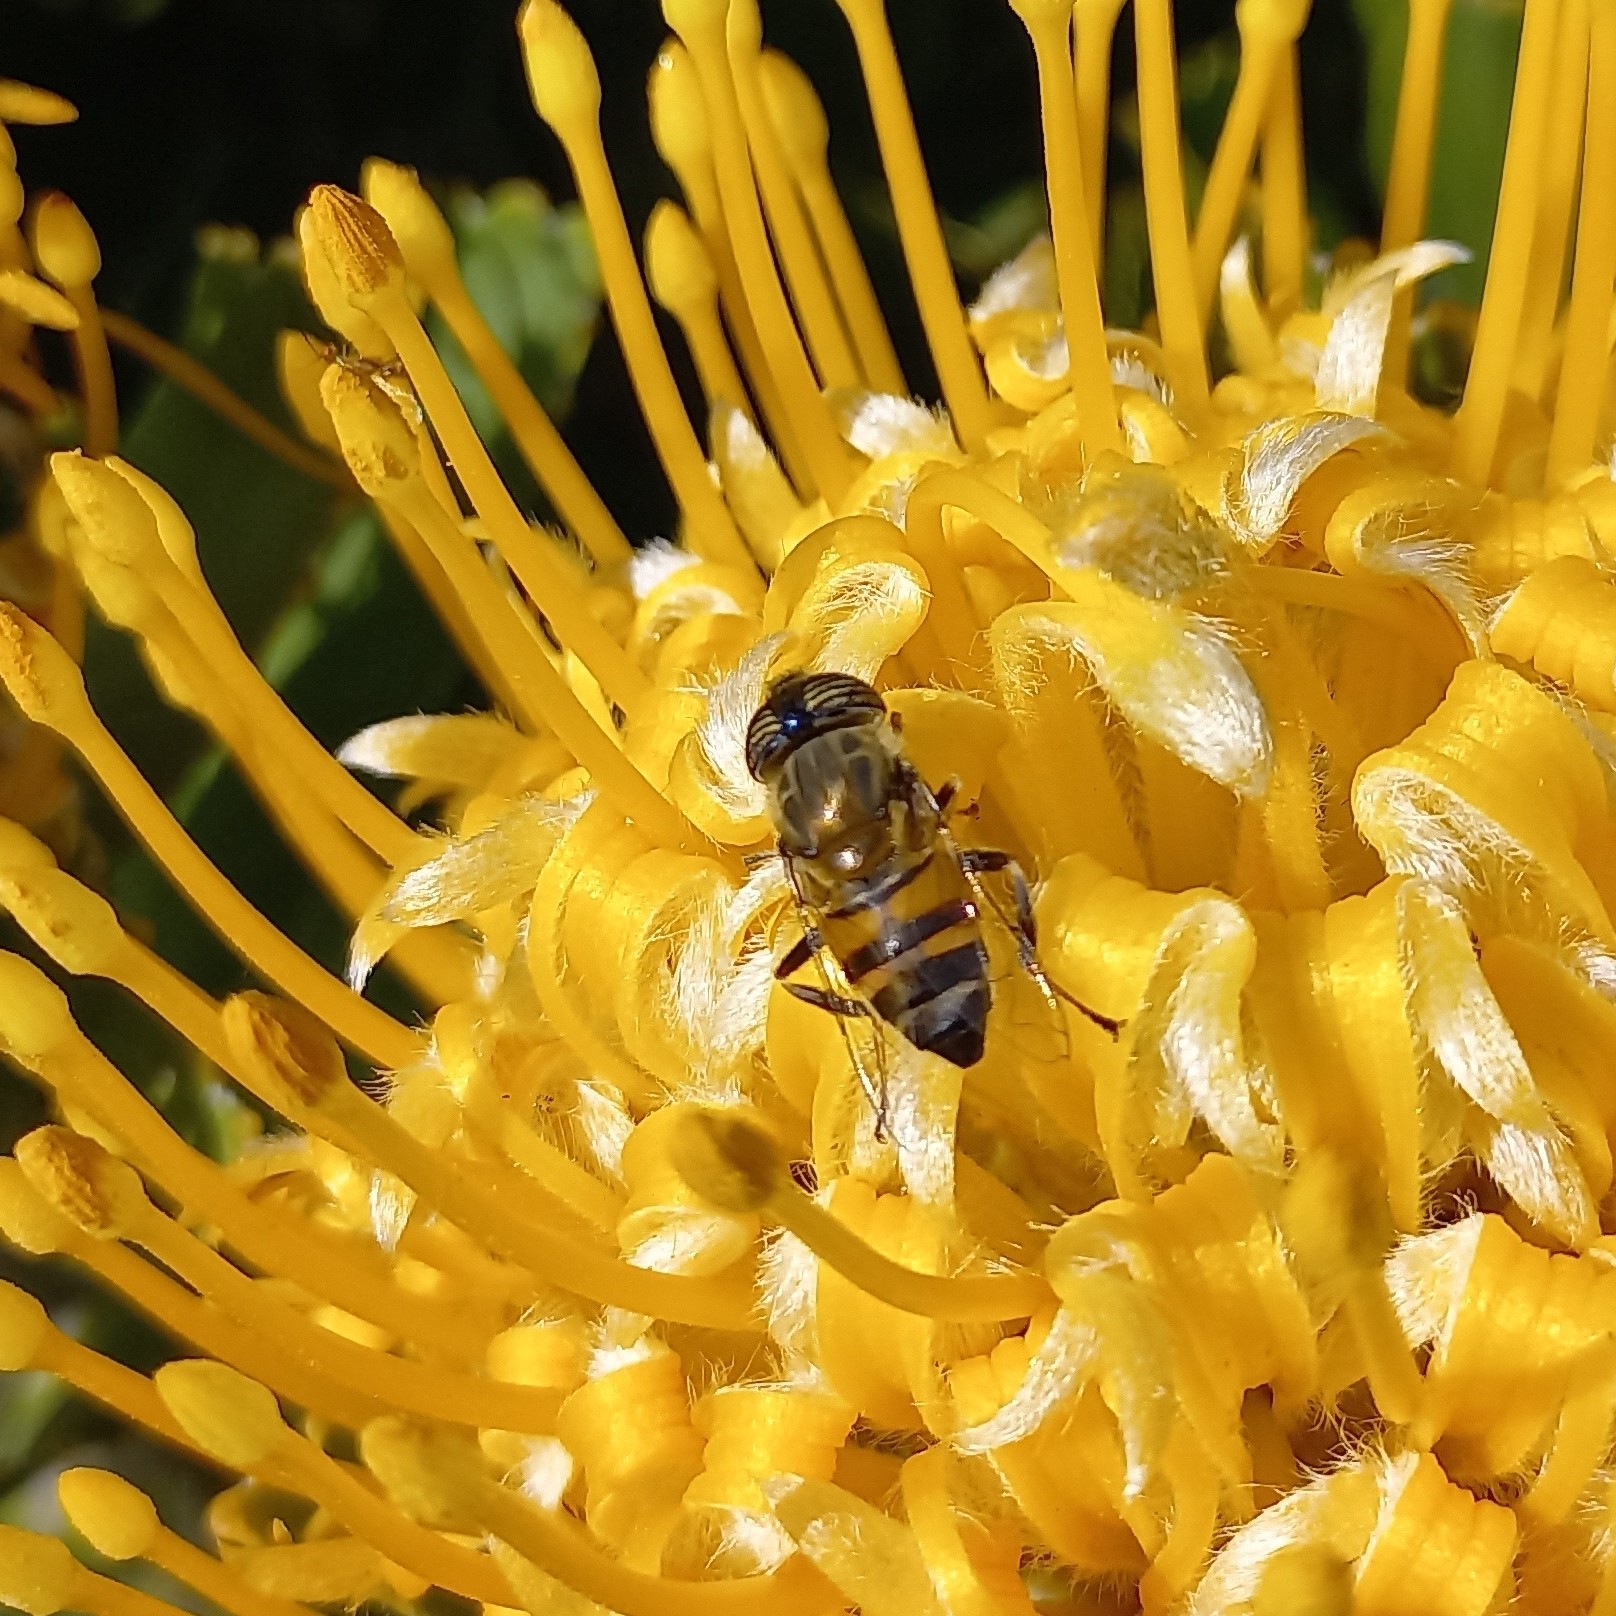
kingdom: Animalia
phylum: Arthropoda
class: Insecta
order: Diptera
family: Syrphidae
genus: Eristalinus
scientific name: Eristalinus taeniops
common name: Syrphid fly
